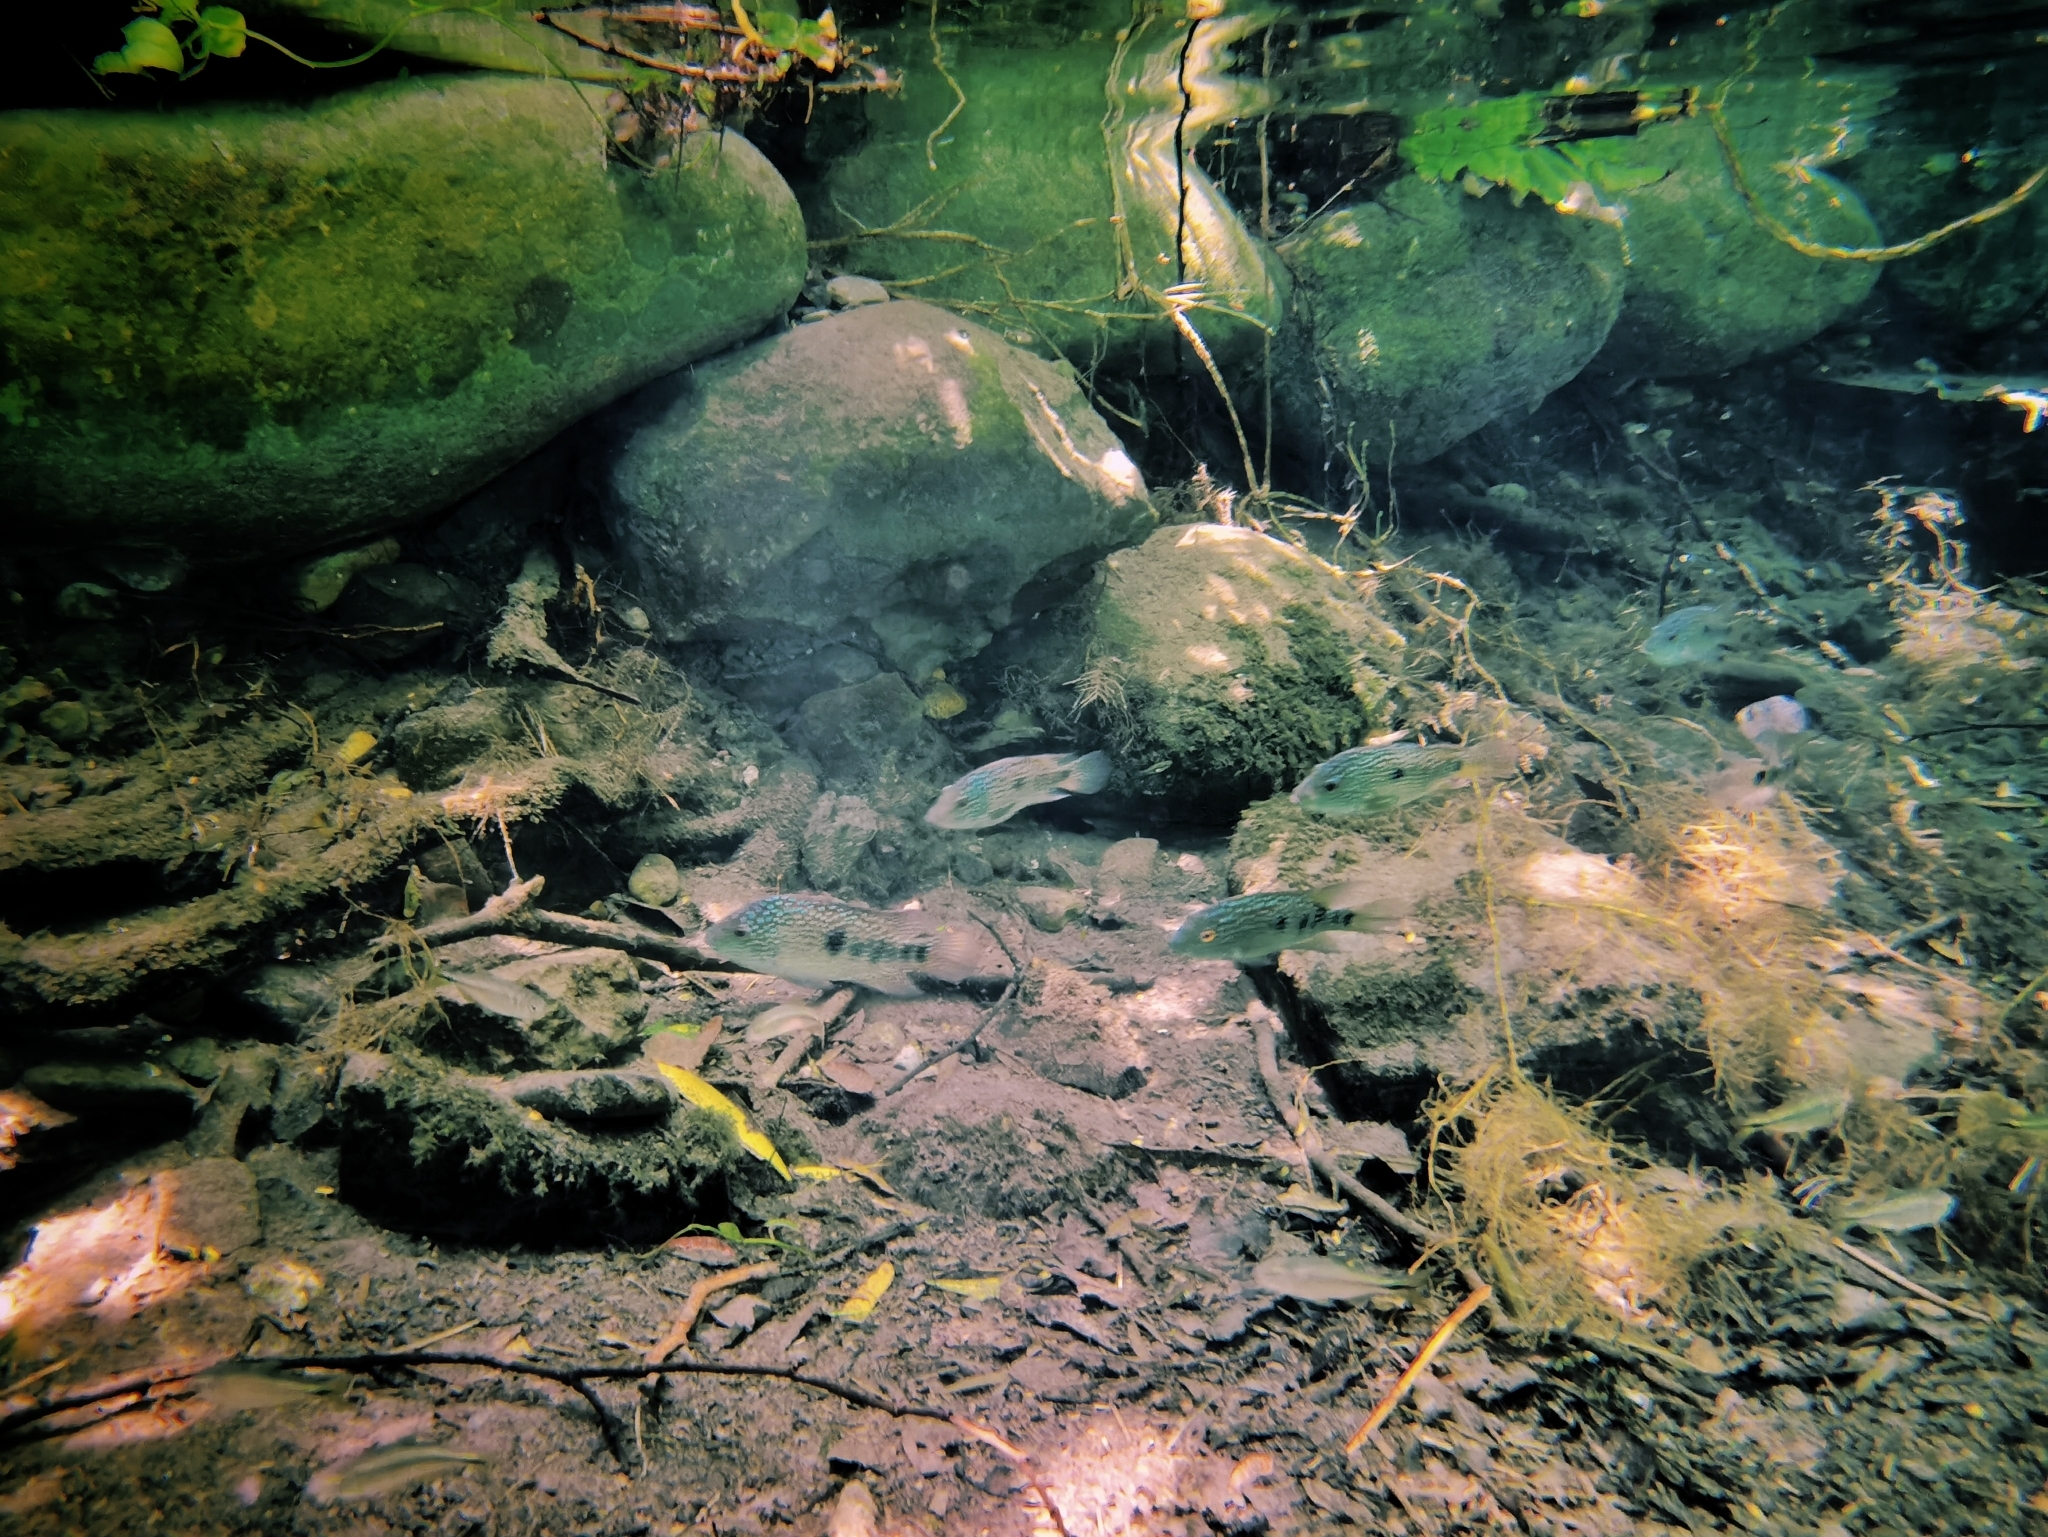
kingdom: Animalia
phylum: Chordata
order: Perciformes
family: Cichlidae
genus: Herichthys
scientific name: Herichthys carpintis
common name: Lowland cichlid
